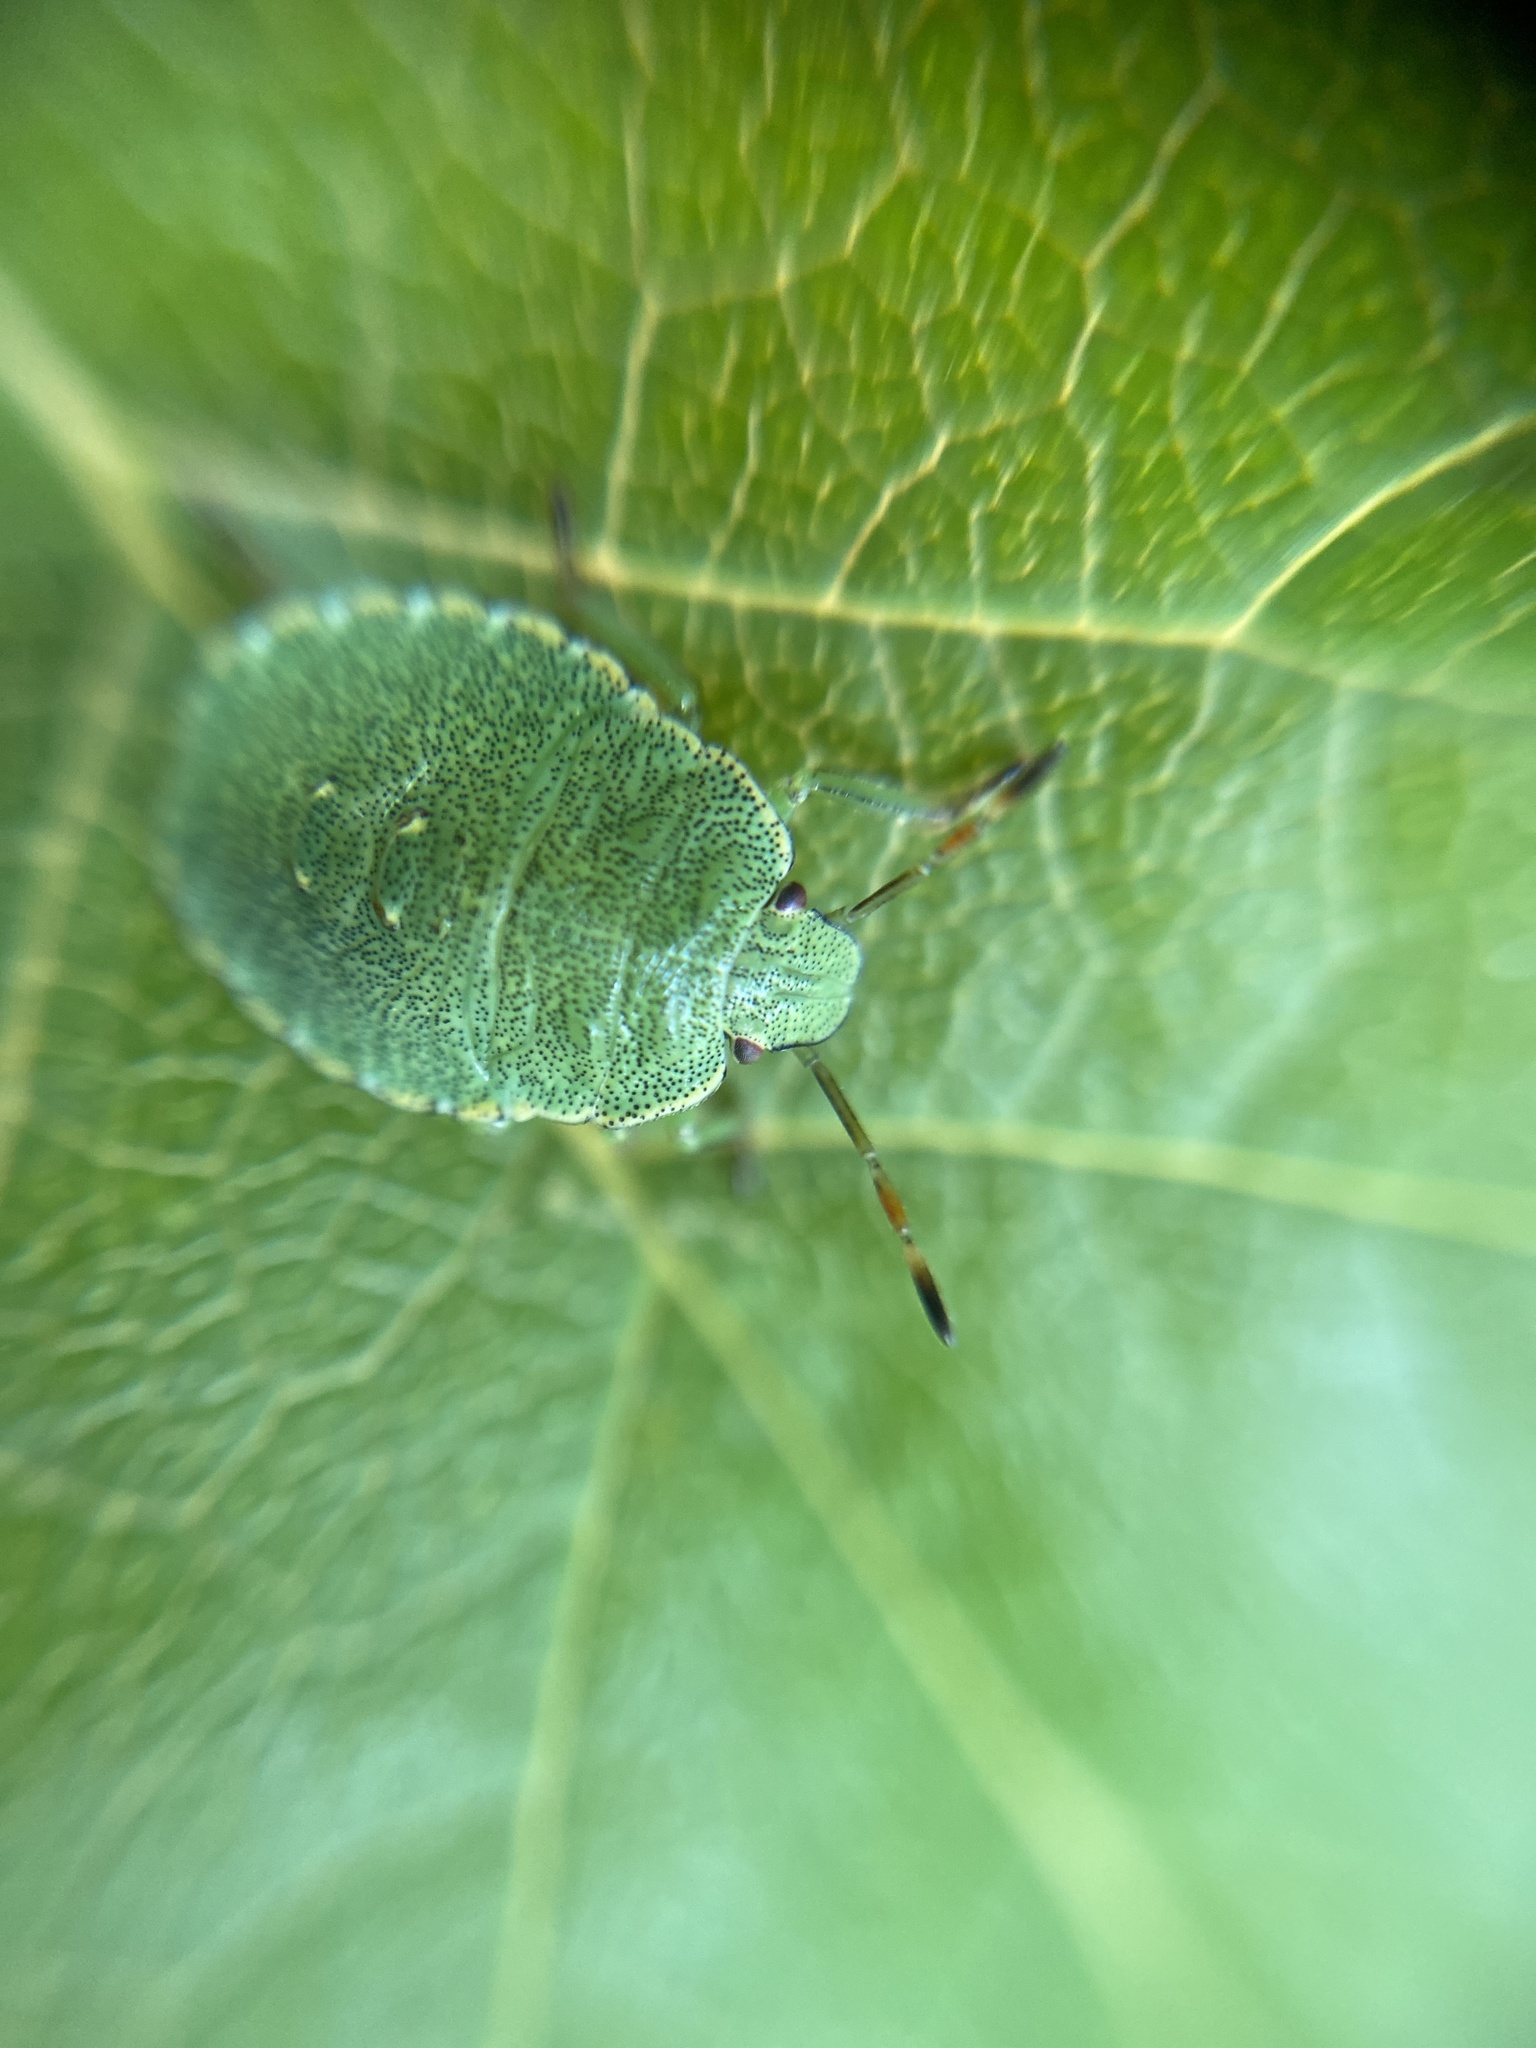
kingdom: Animalia
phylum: Arthropoda
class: Insecta
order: Hemiptera
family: Pentatomidae
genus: Palomena
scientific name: Palomena prasina
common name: Green shieldbug
